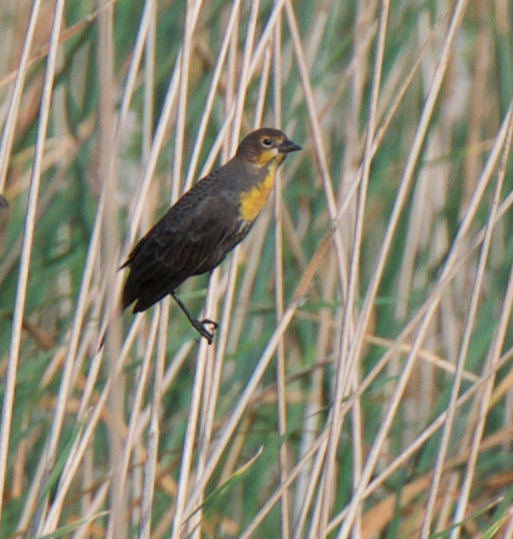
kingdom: Animalia
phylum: Chordata
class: Aves
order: Passeriformes
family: Icteridae
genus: Xanthocephalus
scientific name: Xanthocephalus xanthocephalus
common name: Yellow-headed blackbird
